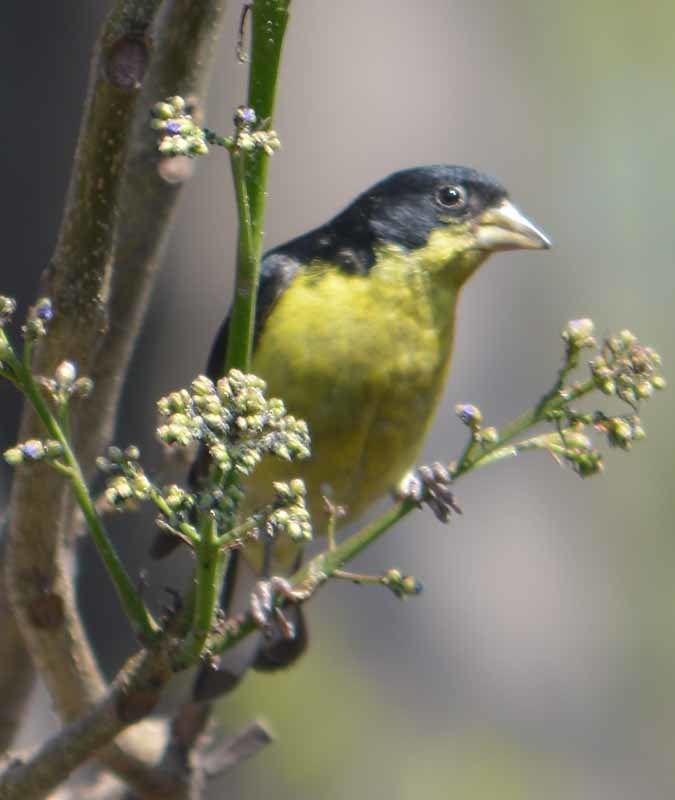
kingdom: Animalia
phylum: Chordata
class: Aves
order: Passeriformes
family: Fringillidae
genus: Spinus
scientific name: Spinus psaltria
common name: Lesser goldfinch
